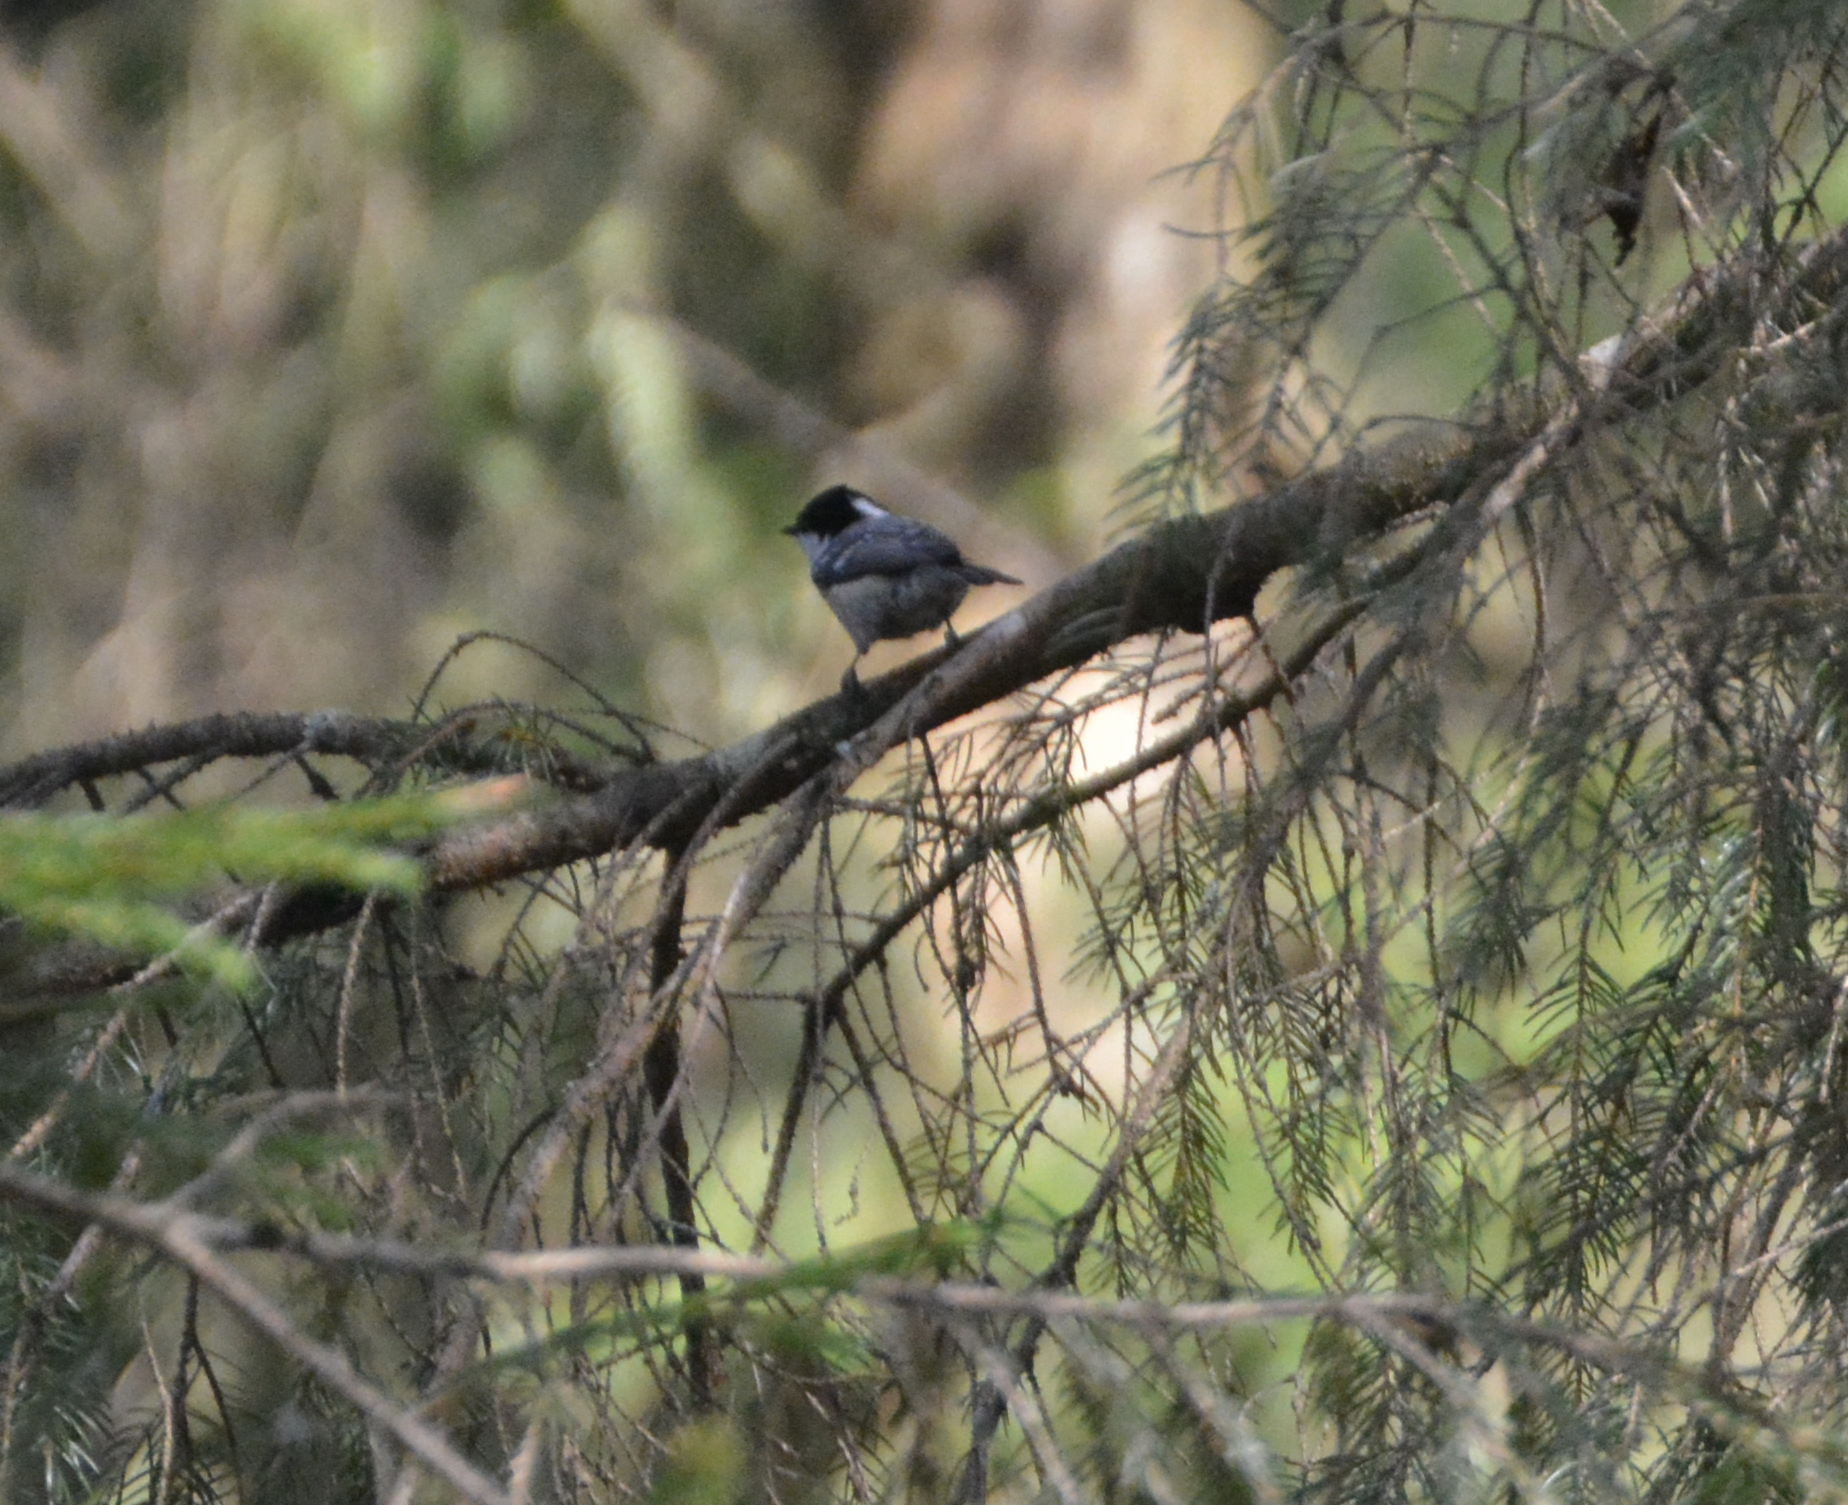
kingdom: Animalia
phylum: Chordata
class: Aves
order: Passeriformes
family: Paridae
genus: Periparus
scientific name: Periparus ater
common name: Coal tit
